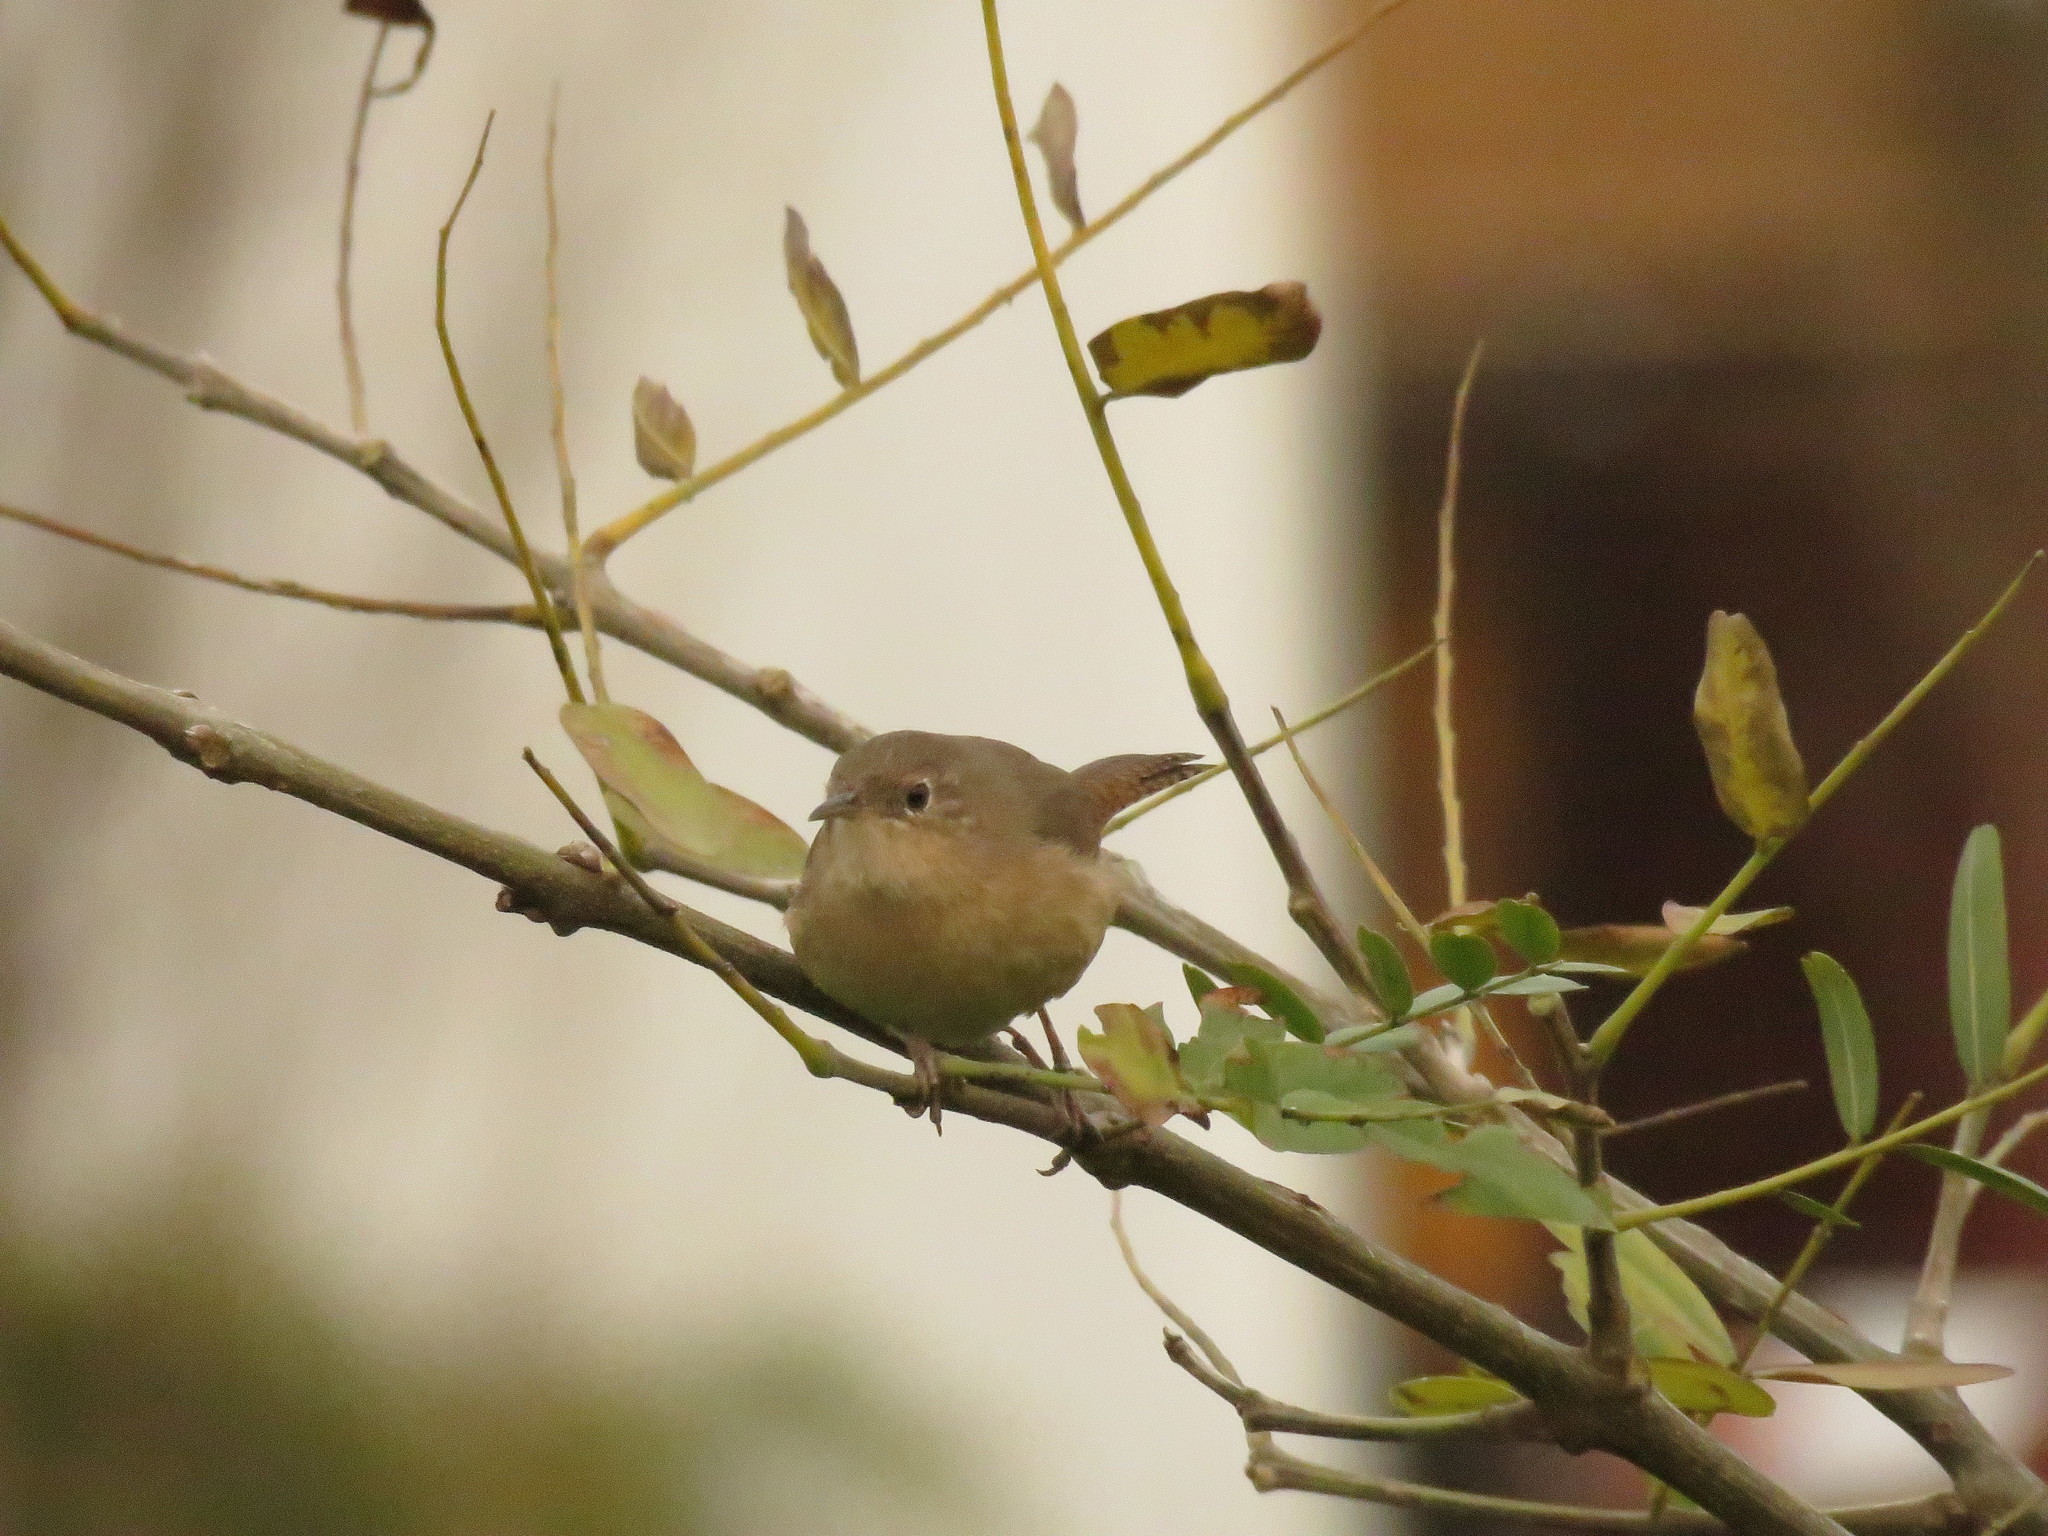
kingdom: Animalia
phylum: Chordata
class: Aves
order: Passeriformes
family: Troglodytidae
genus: Troglodytes
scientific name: Troglodytes aedon
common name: House wren
